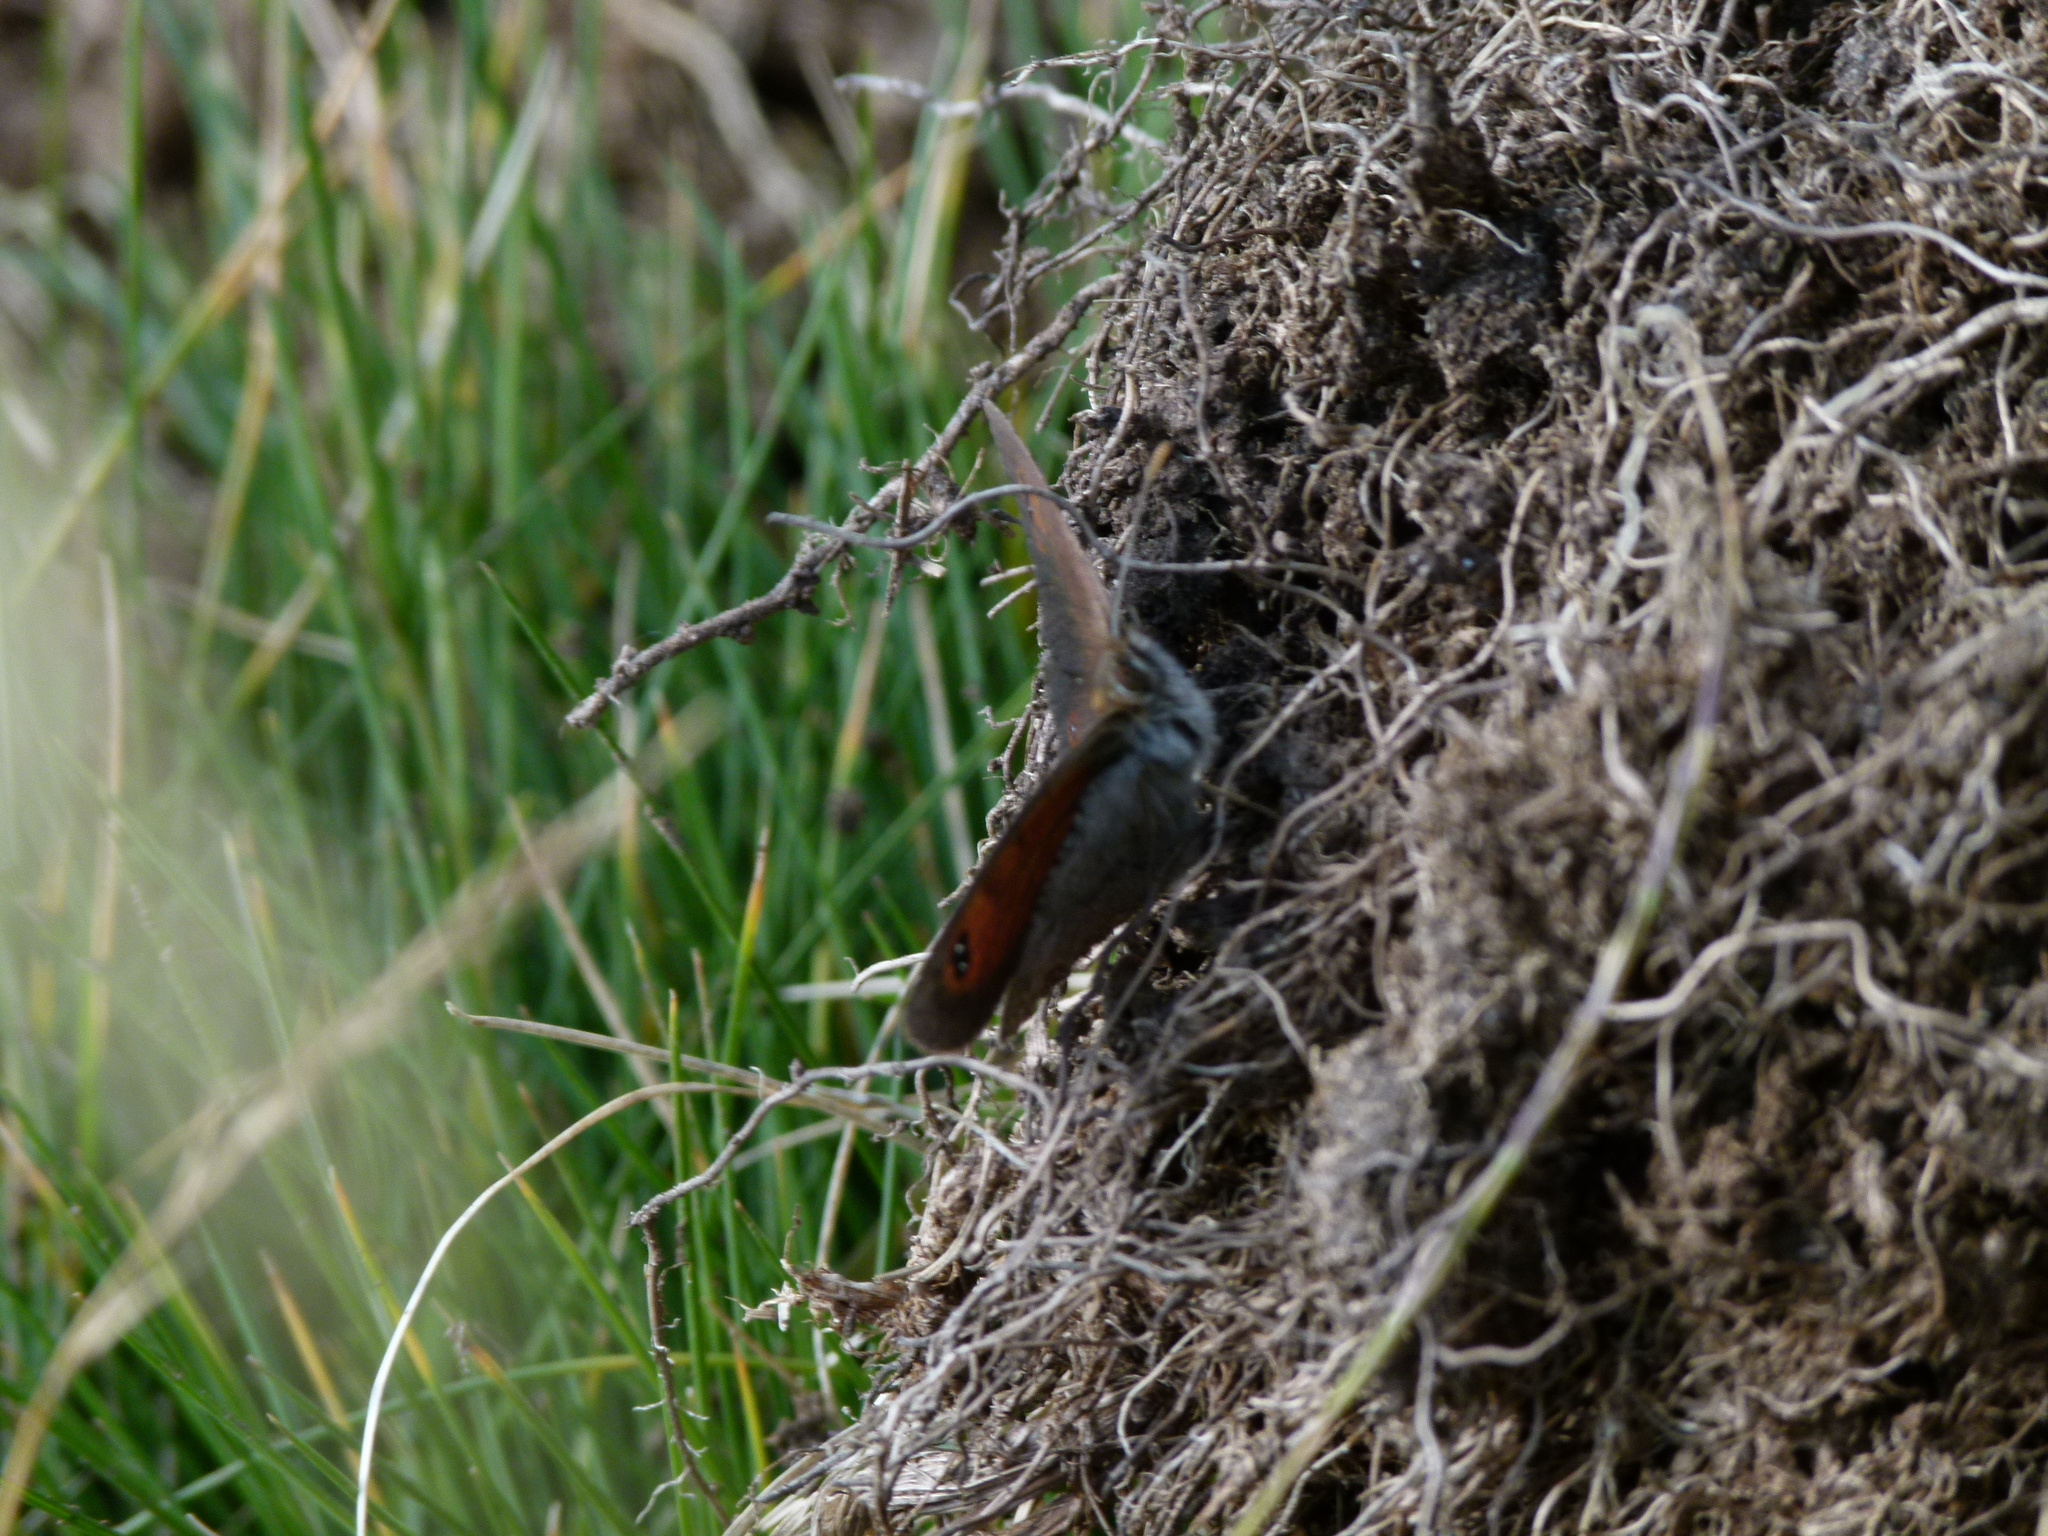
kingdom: Animalia
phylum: Arthropoda
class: Insecta
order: Lepidoptera
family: Nymphalidae
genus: Erebia
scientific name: Erebia cassioides
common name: Common brassy ringlet
